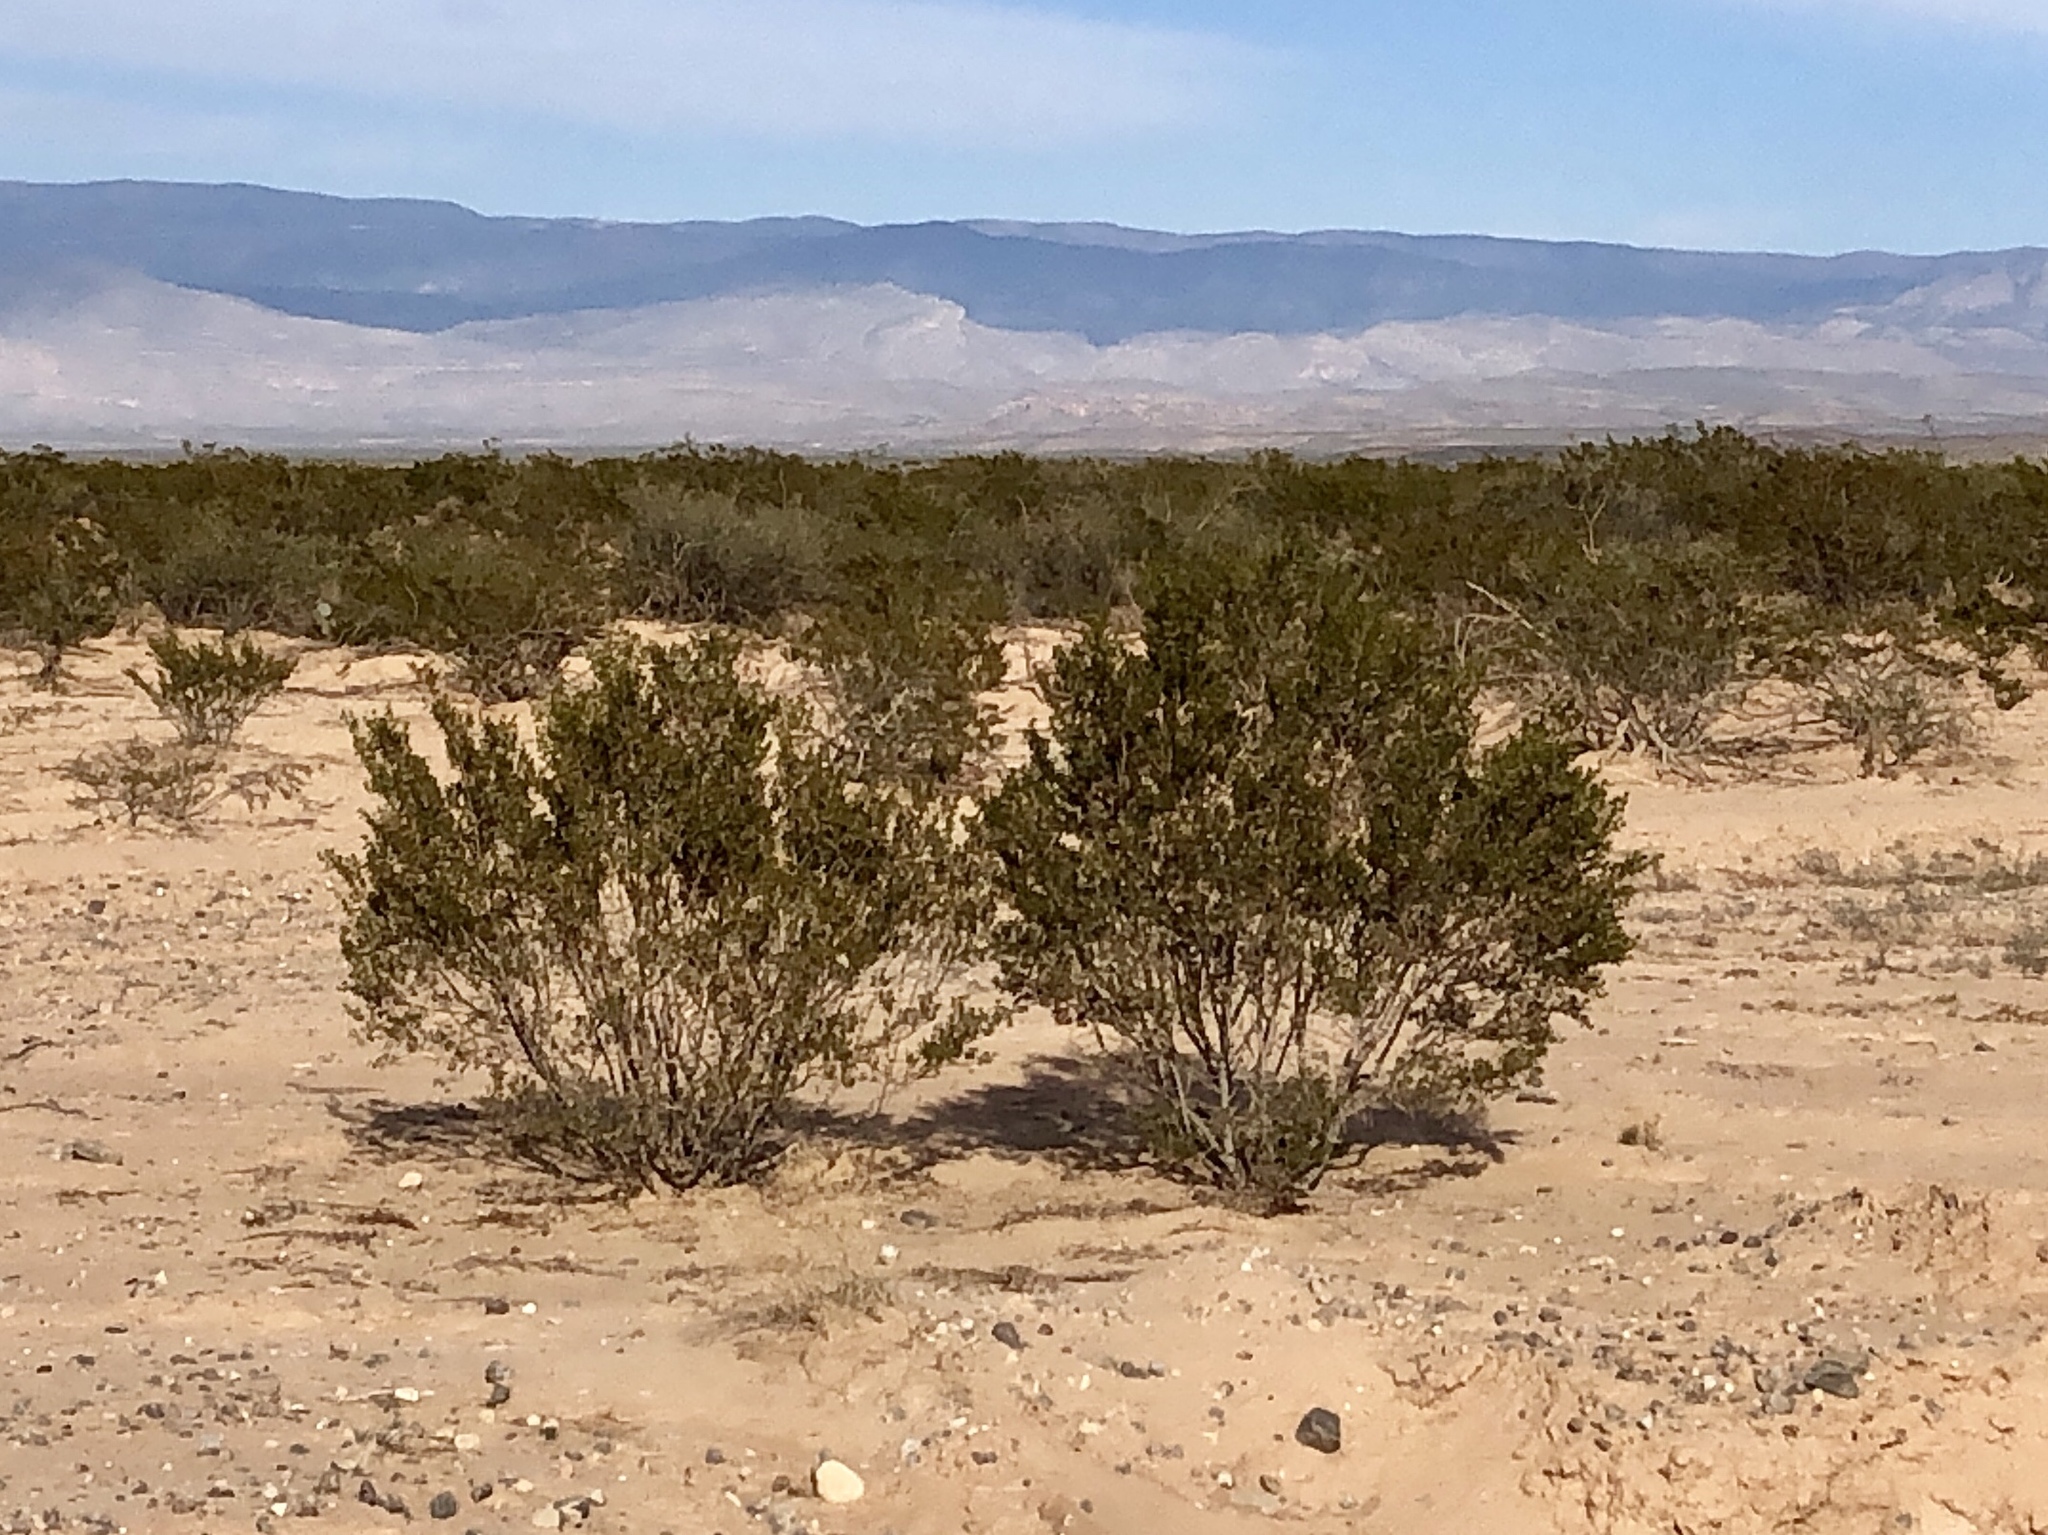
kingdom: Plantae
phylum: Tracheophyta
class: Magnoliopsida
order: Zygophyllales
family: Zygophyllaceae
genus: Larrea
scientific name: Larrea tridentata
